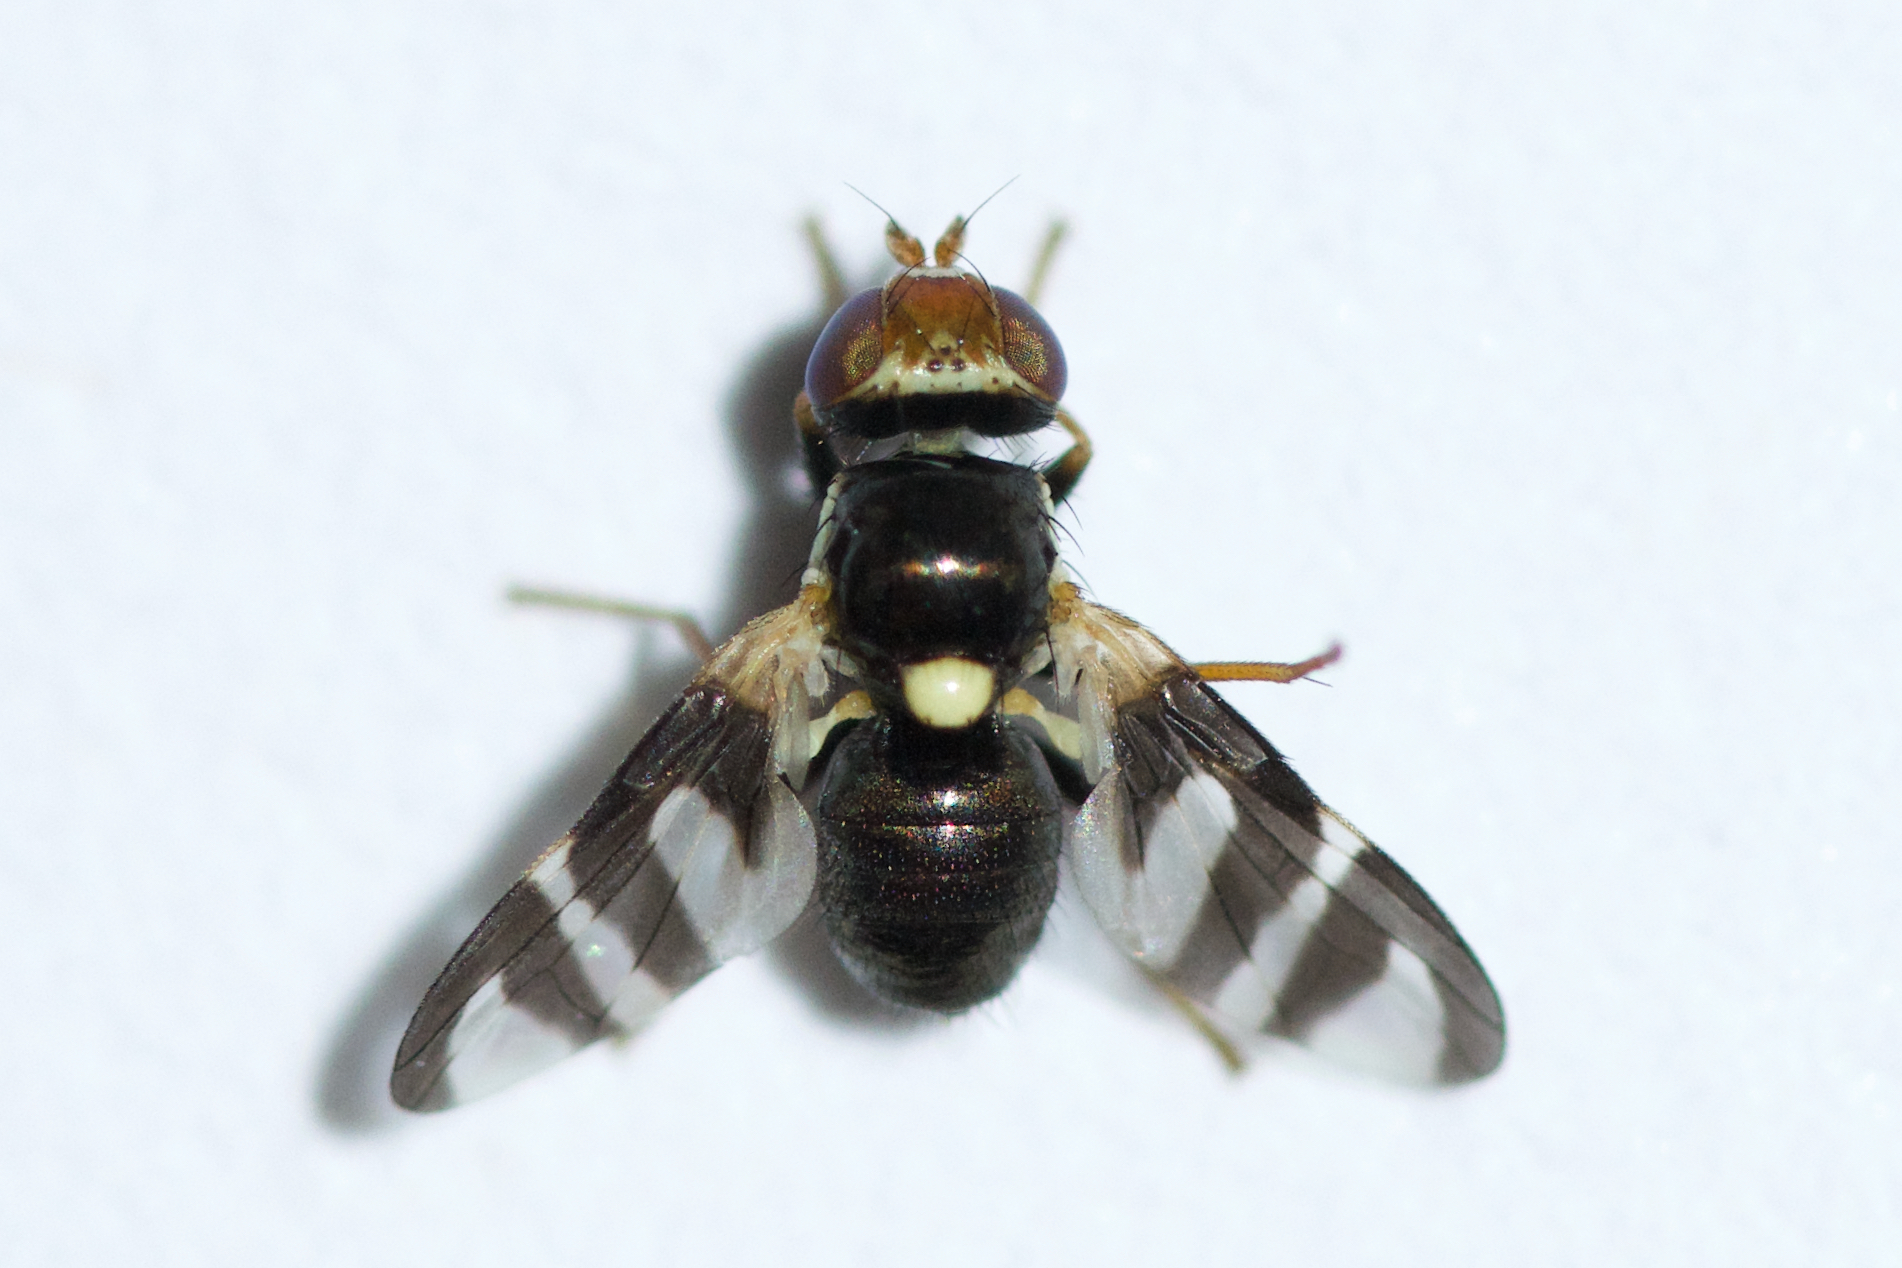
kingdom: Animalia
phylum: Arthropoda
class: Insecta
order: Diptera
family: Tephritidae
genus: Urophora
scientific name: Urophora quadrifasciata
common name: Knapweed seedhead fly
